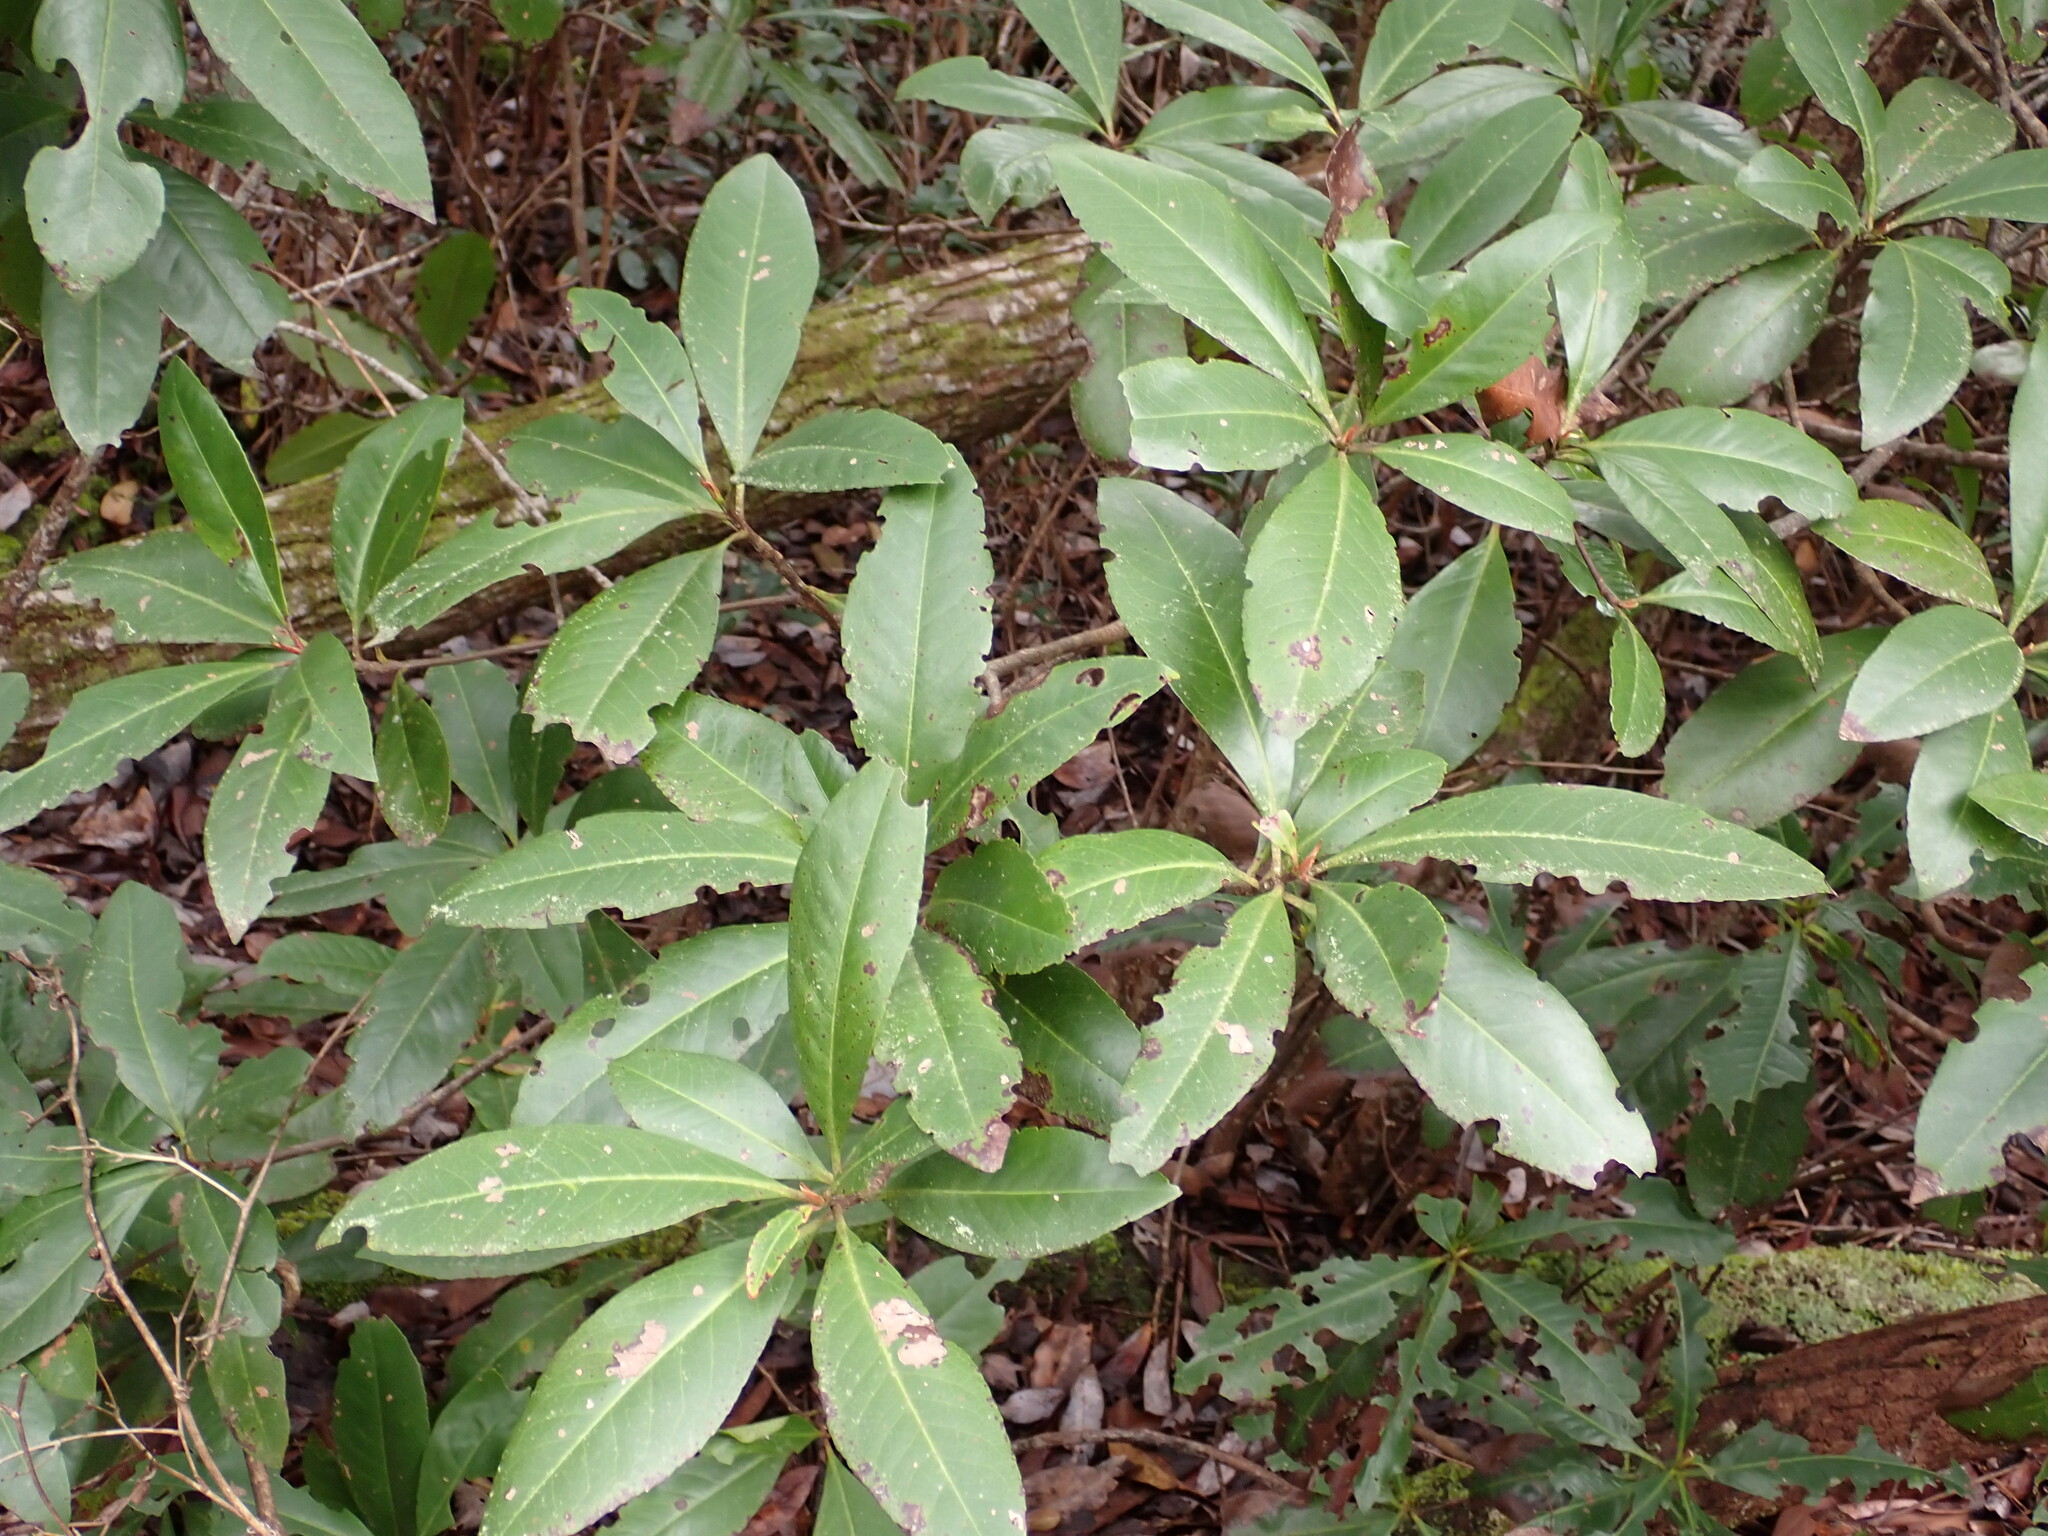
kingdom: Plantae
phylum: Tracheophyta
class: Magnoliopsida
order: Ericales
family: Symplocaceae
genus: Symplocos
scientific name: Symplocos tinctoria
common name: Horse-sugar
